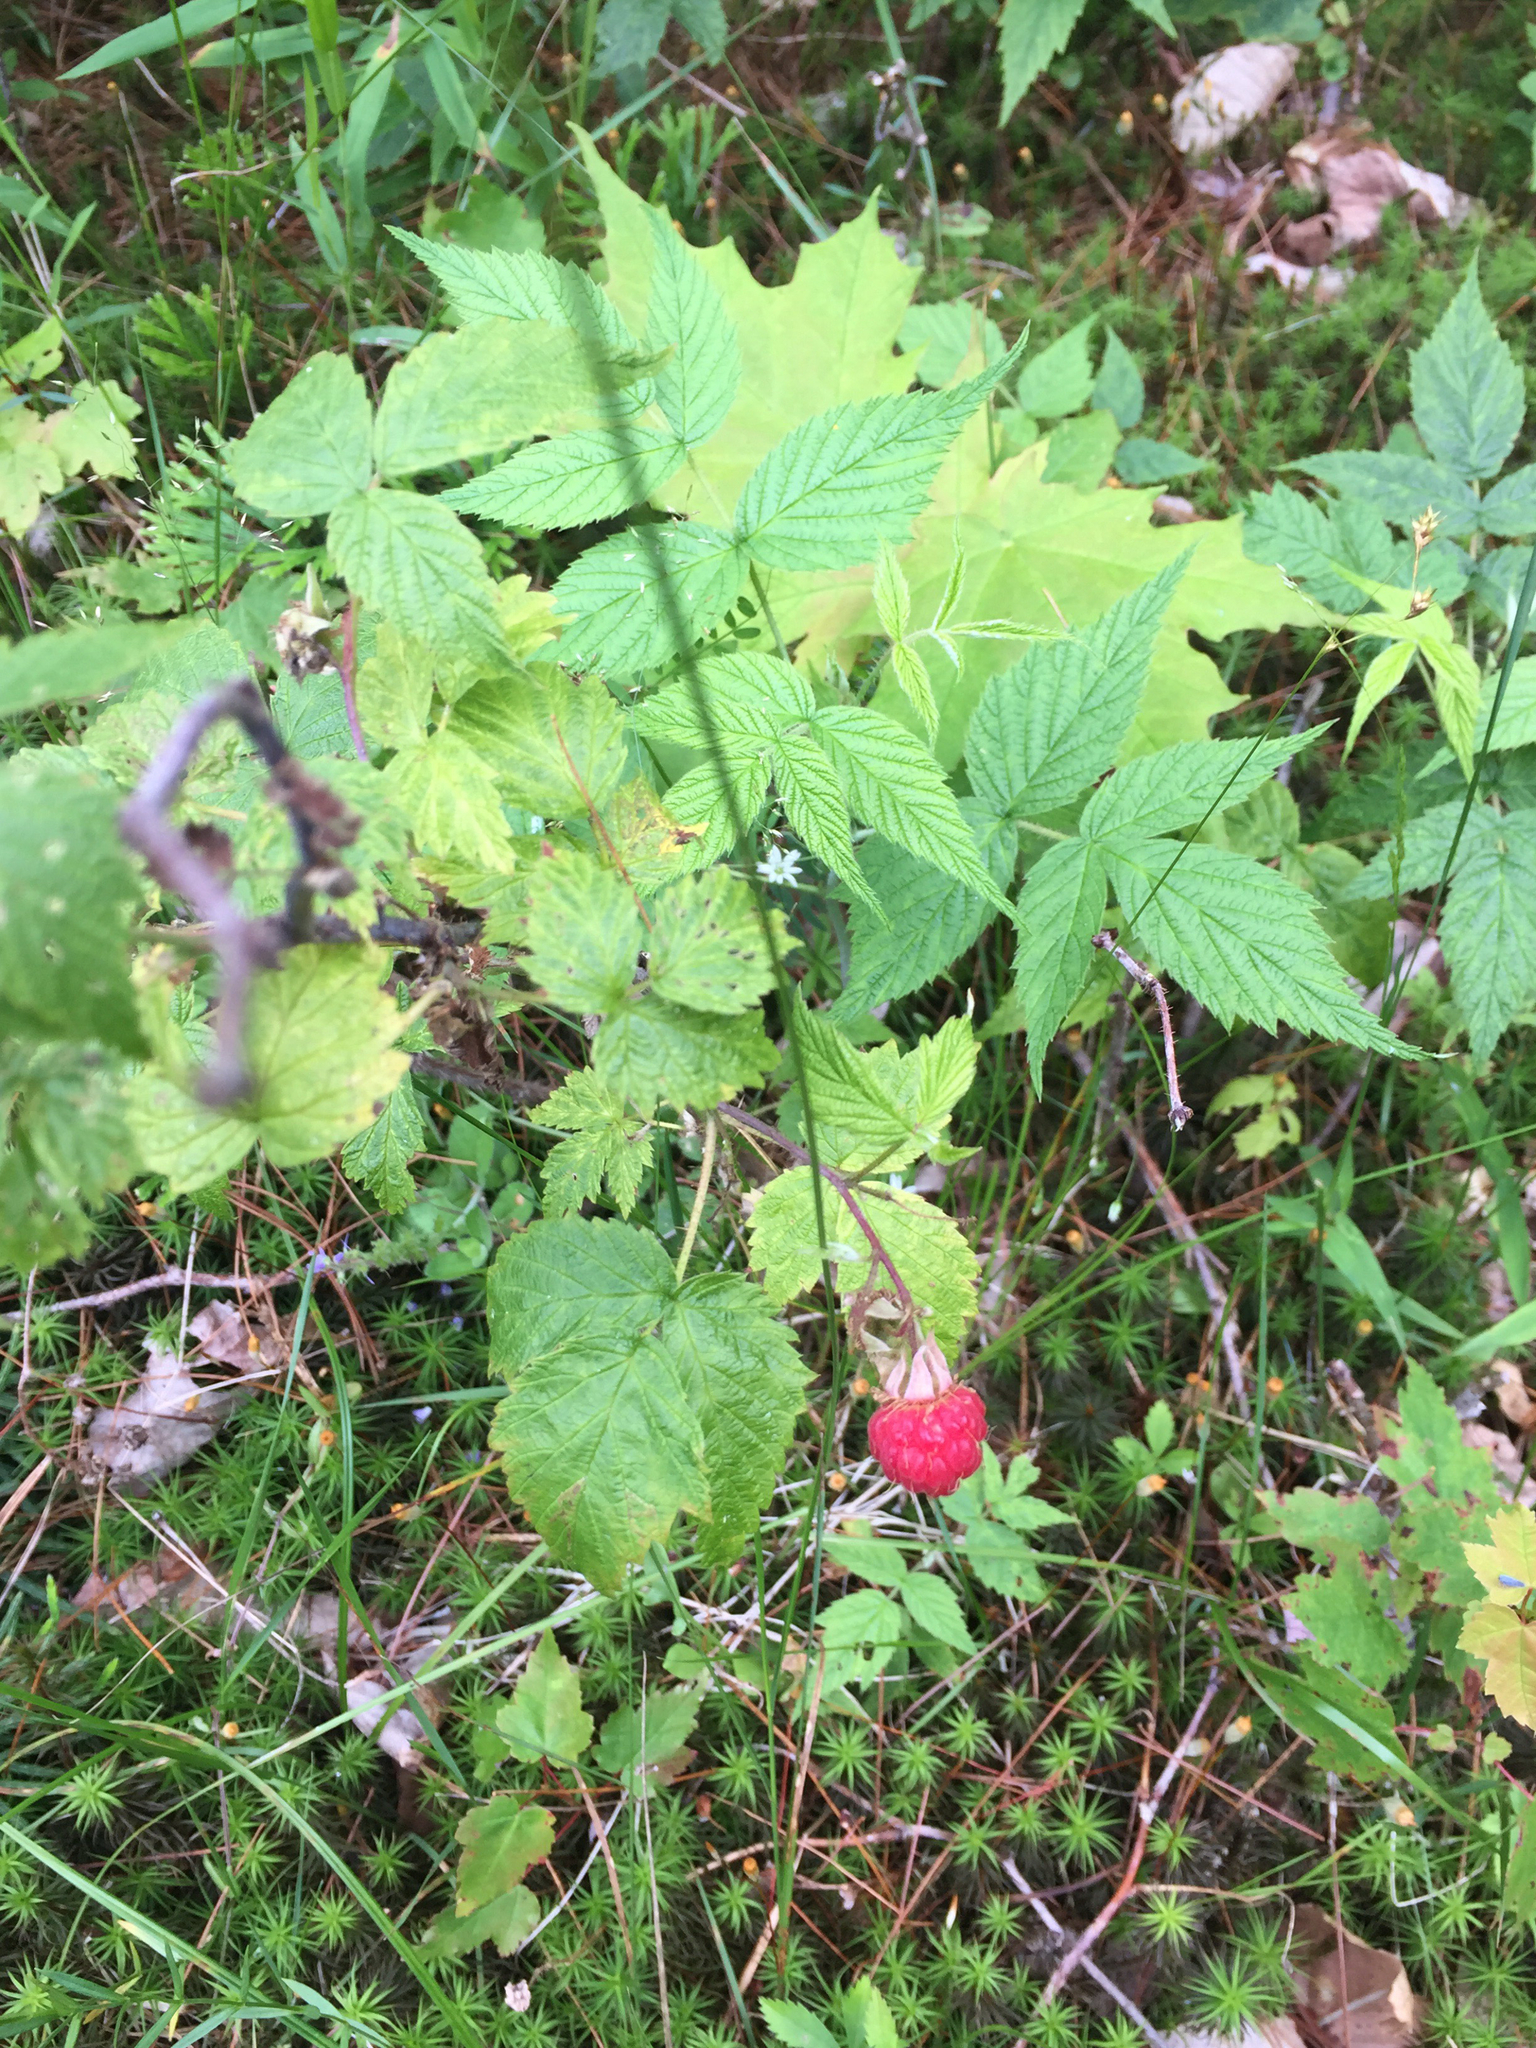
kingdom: Plantae
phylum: Tracheophyta
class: Magnoliopsida
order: Rosales
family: Rosaceae
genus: Rubus
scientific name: Rubus idaeus
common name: Raspberry
